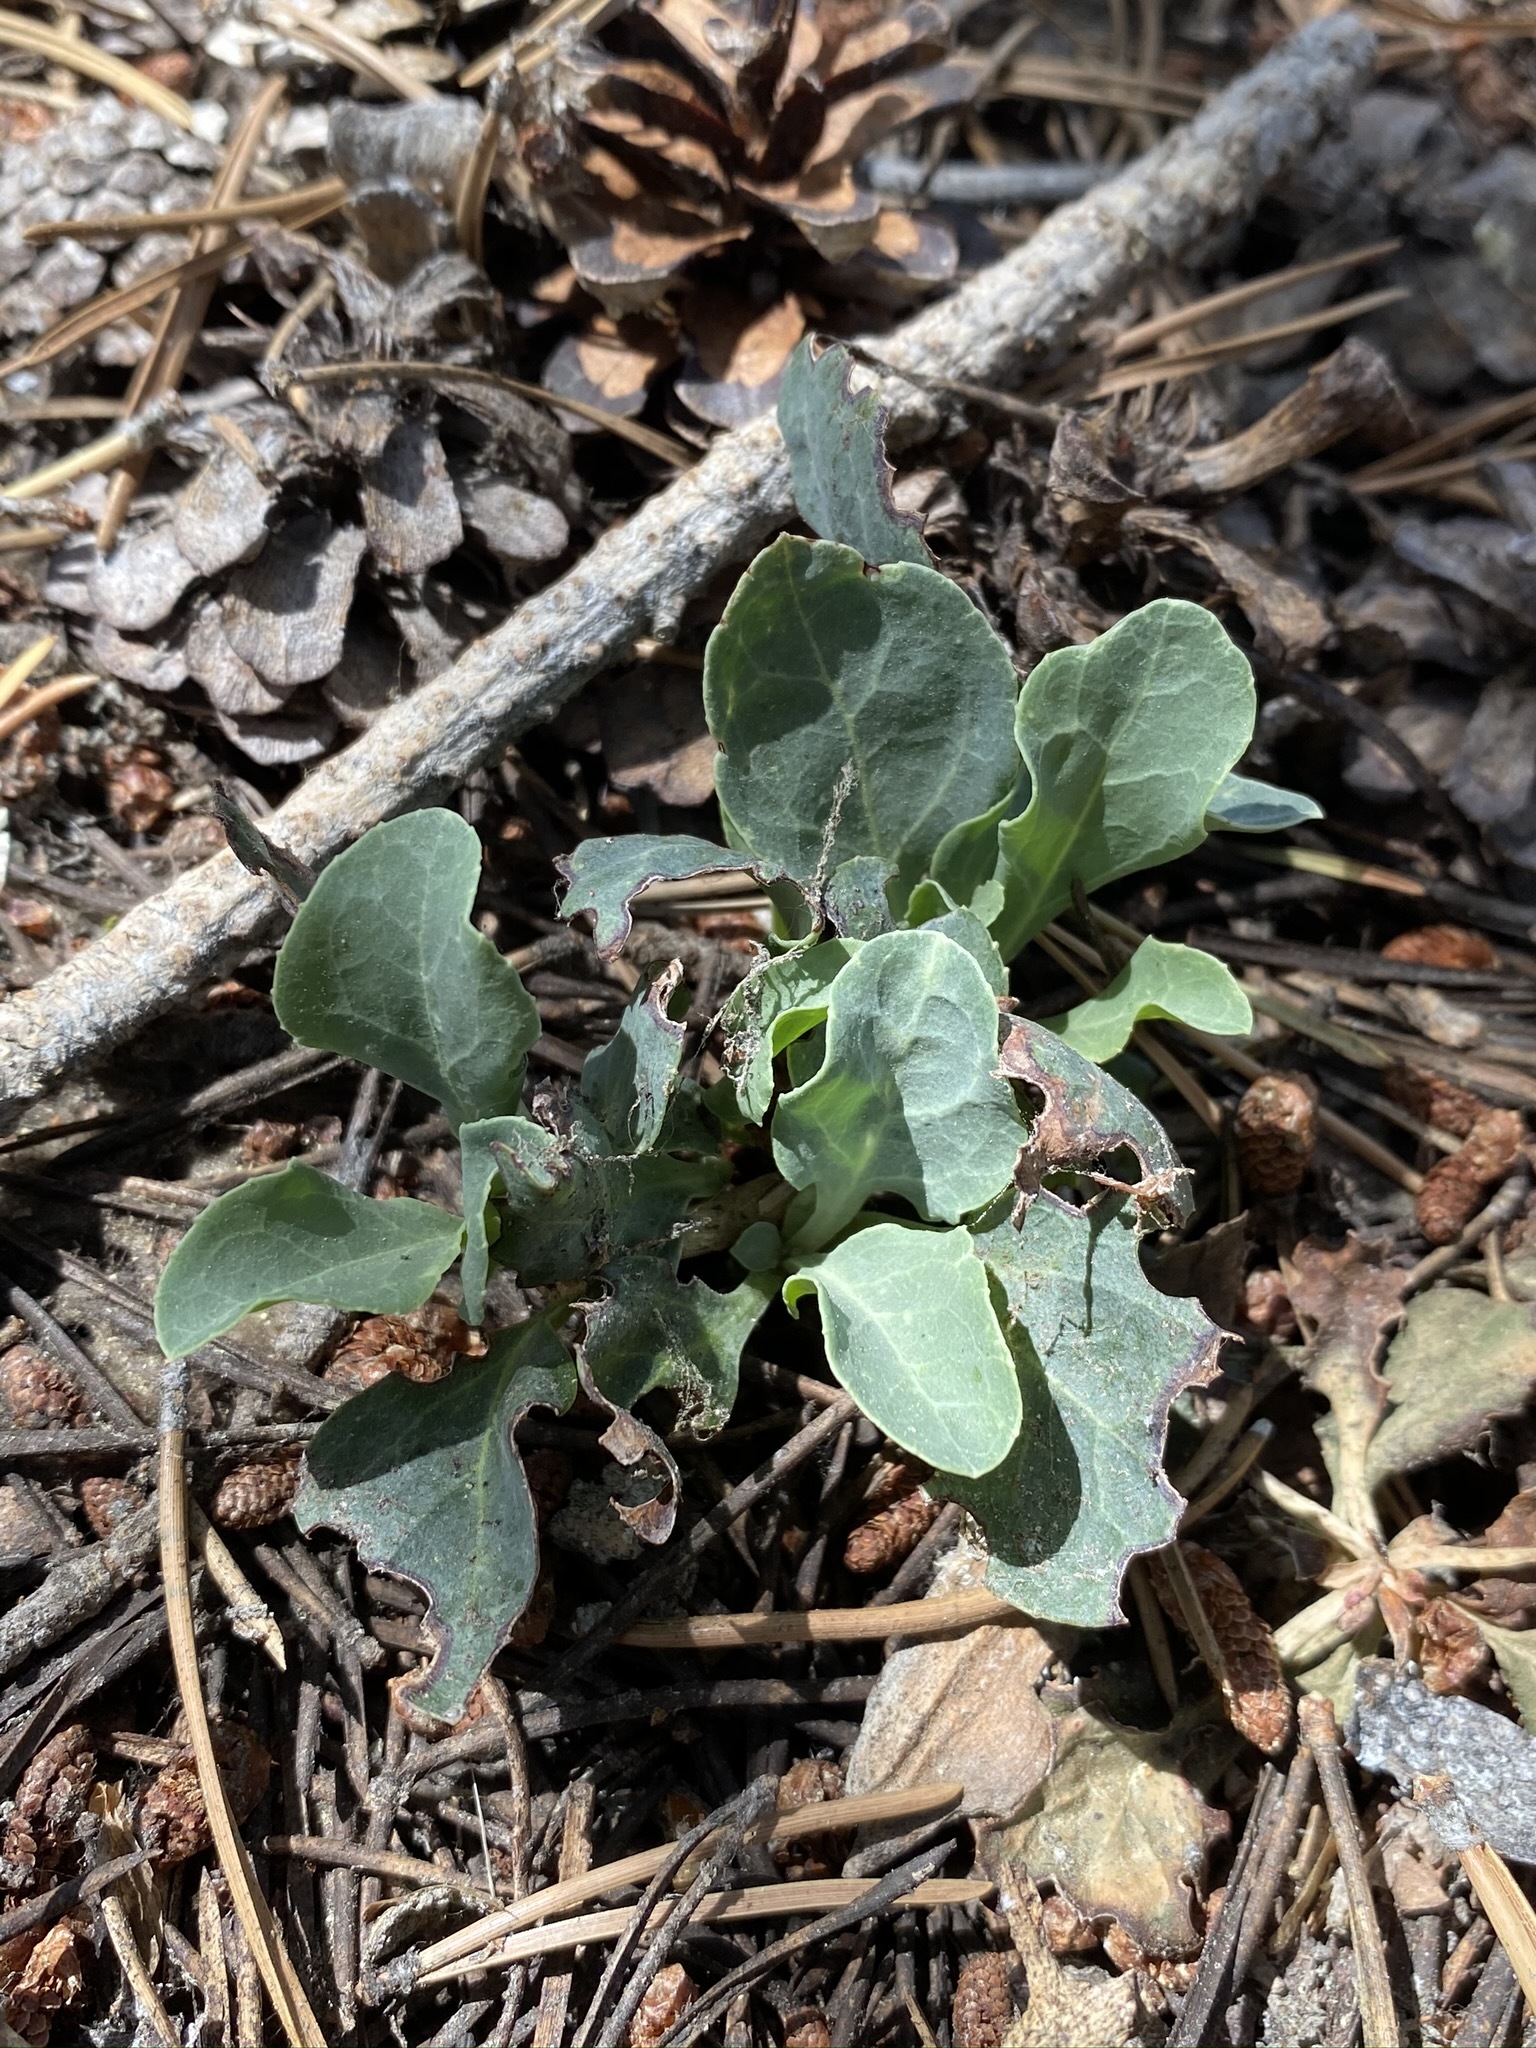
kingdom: Plantae
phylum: Tracheophyta
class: Magnoliopsida
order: Ericales
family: Ericaceae
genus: Pyrola
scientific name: Pyrola dentata
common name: Tooth-leaved wintergreen
